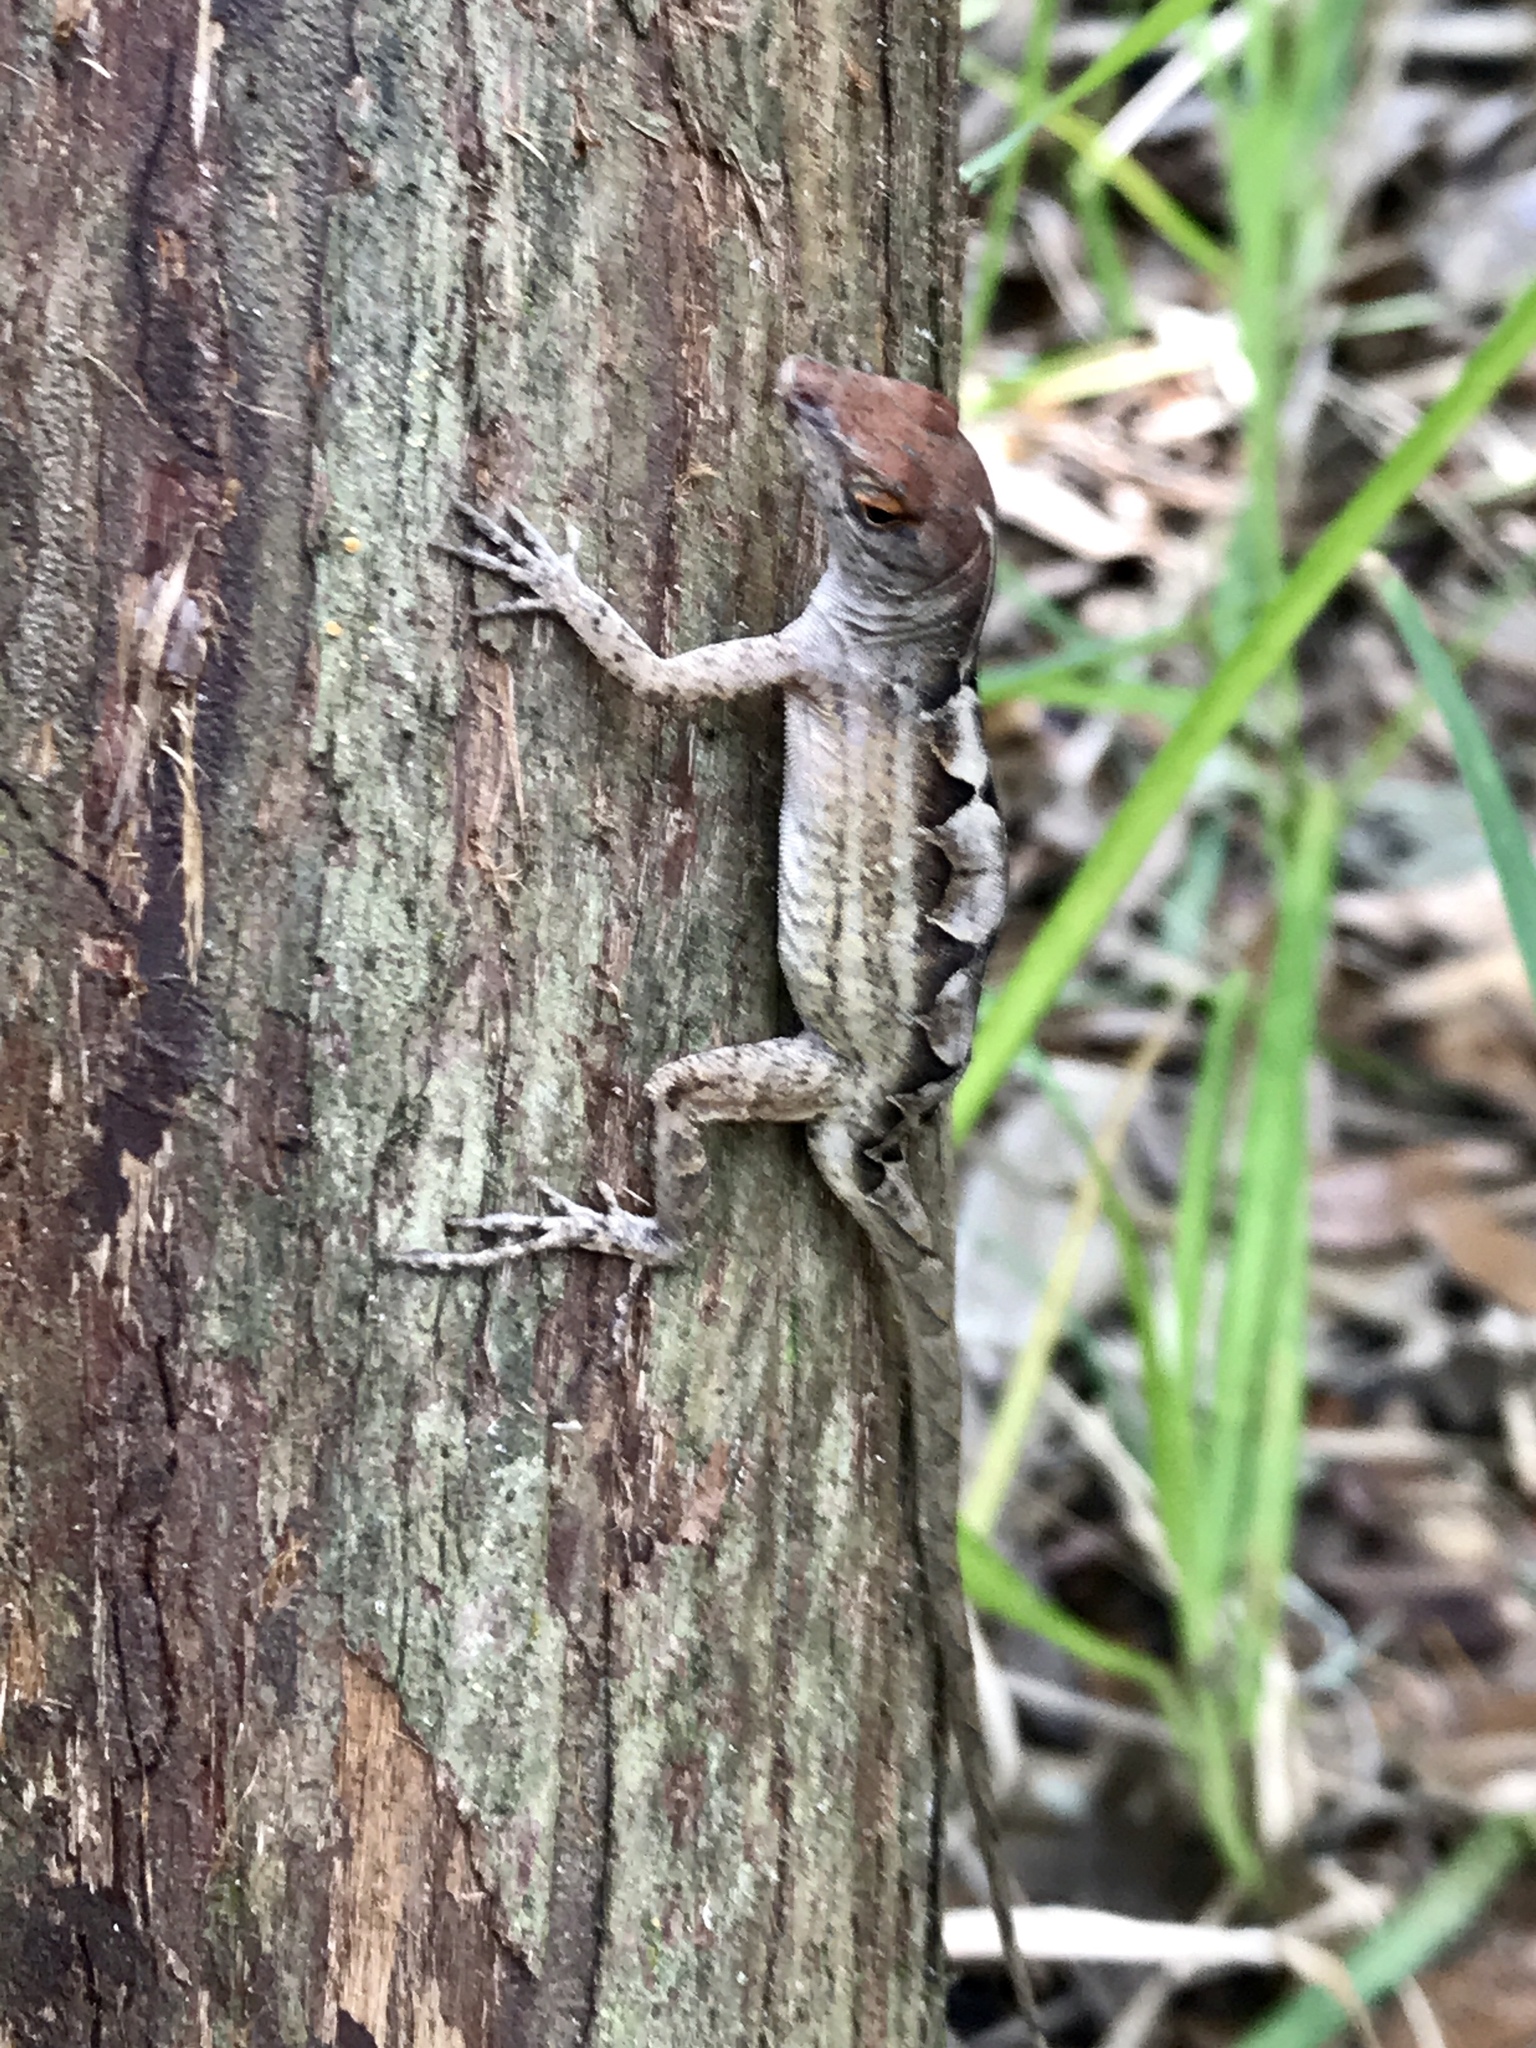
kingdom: Animalia
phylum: Chordata
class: Squamata
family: Dactyloidae
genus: Anolis
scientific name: Anolis sagrei
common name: Brown anole
